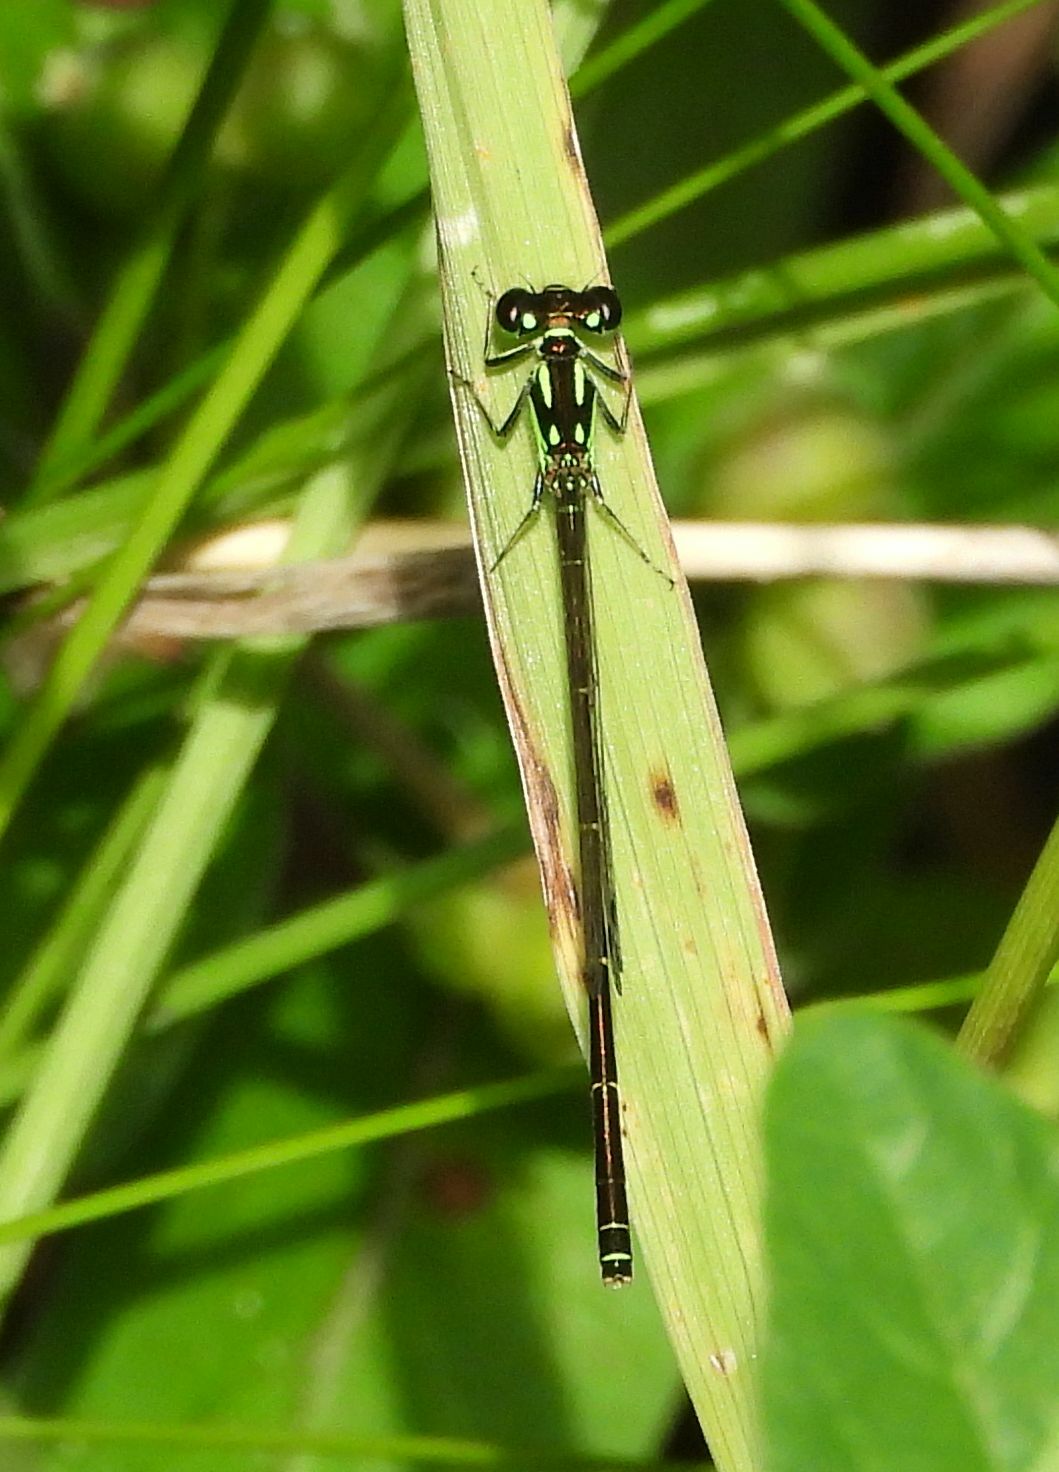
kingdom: Animalia
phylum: Arthropoda
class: Insecta
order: Odonata
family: Coenagrionidae
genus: Ischnura
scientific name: Ischnura posita
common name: Fragile forktail
